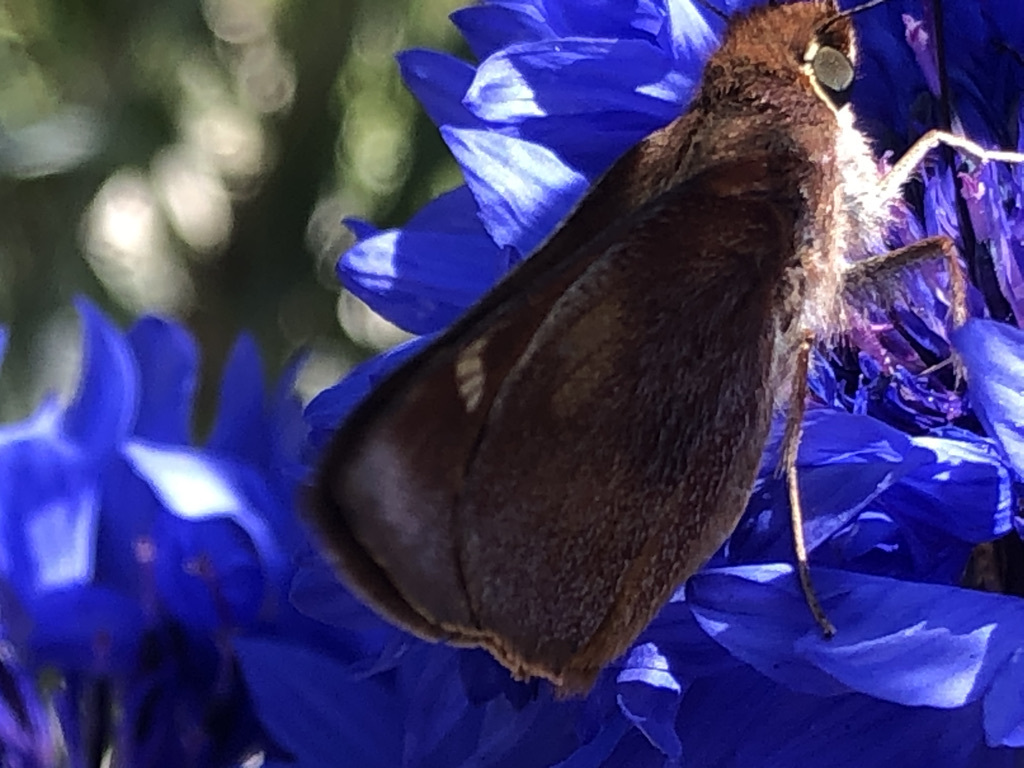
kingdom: Animalia
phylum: Arthropoda
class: Insecta
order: Lepidoptera
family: Hesperiidae
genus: Lon
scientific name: Lon melane
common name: Umber skipper
